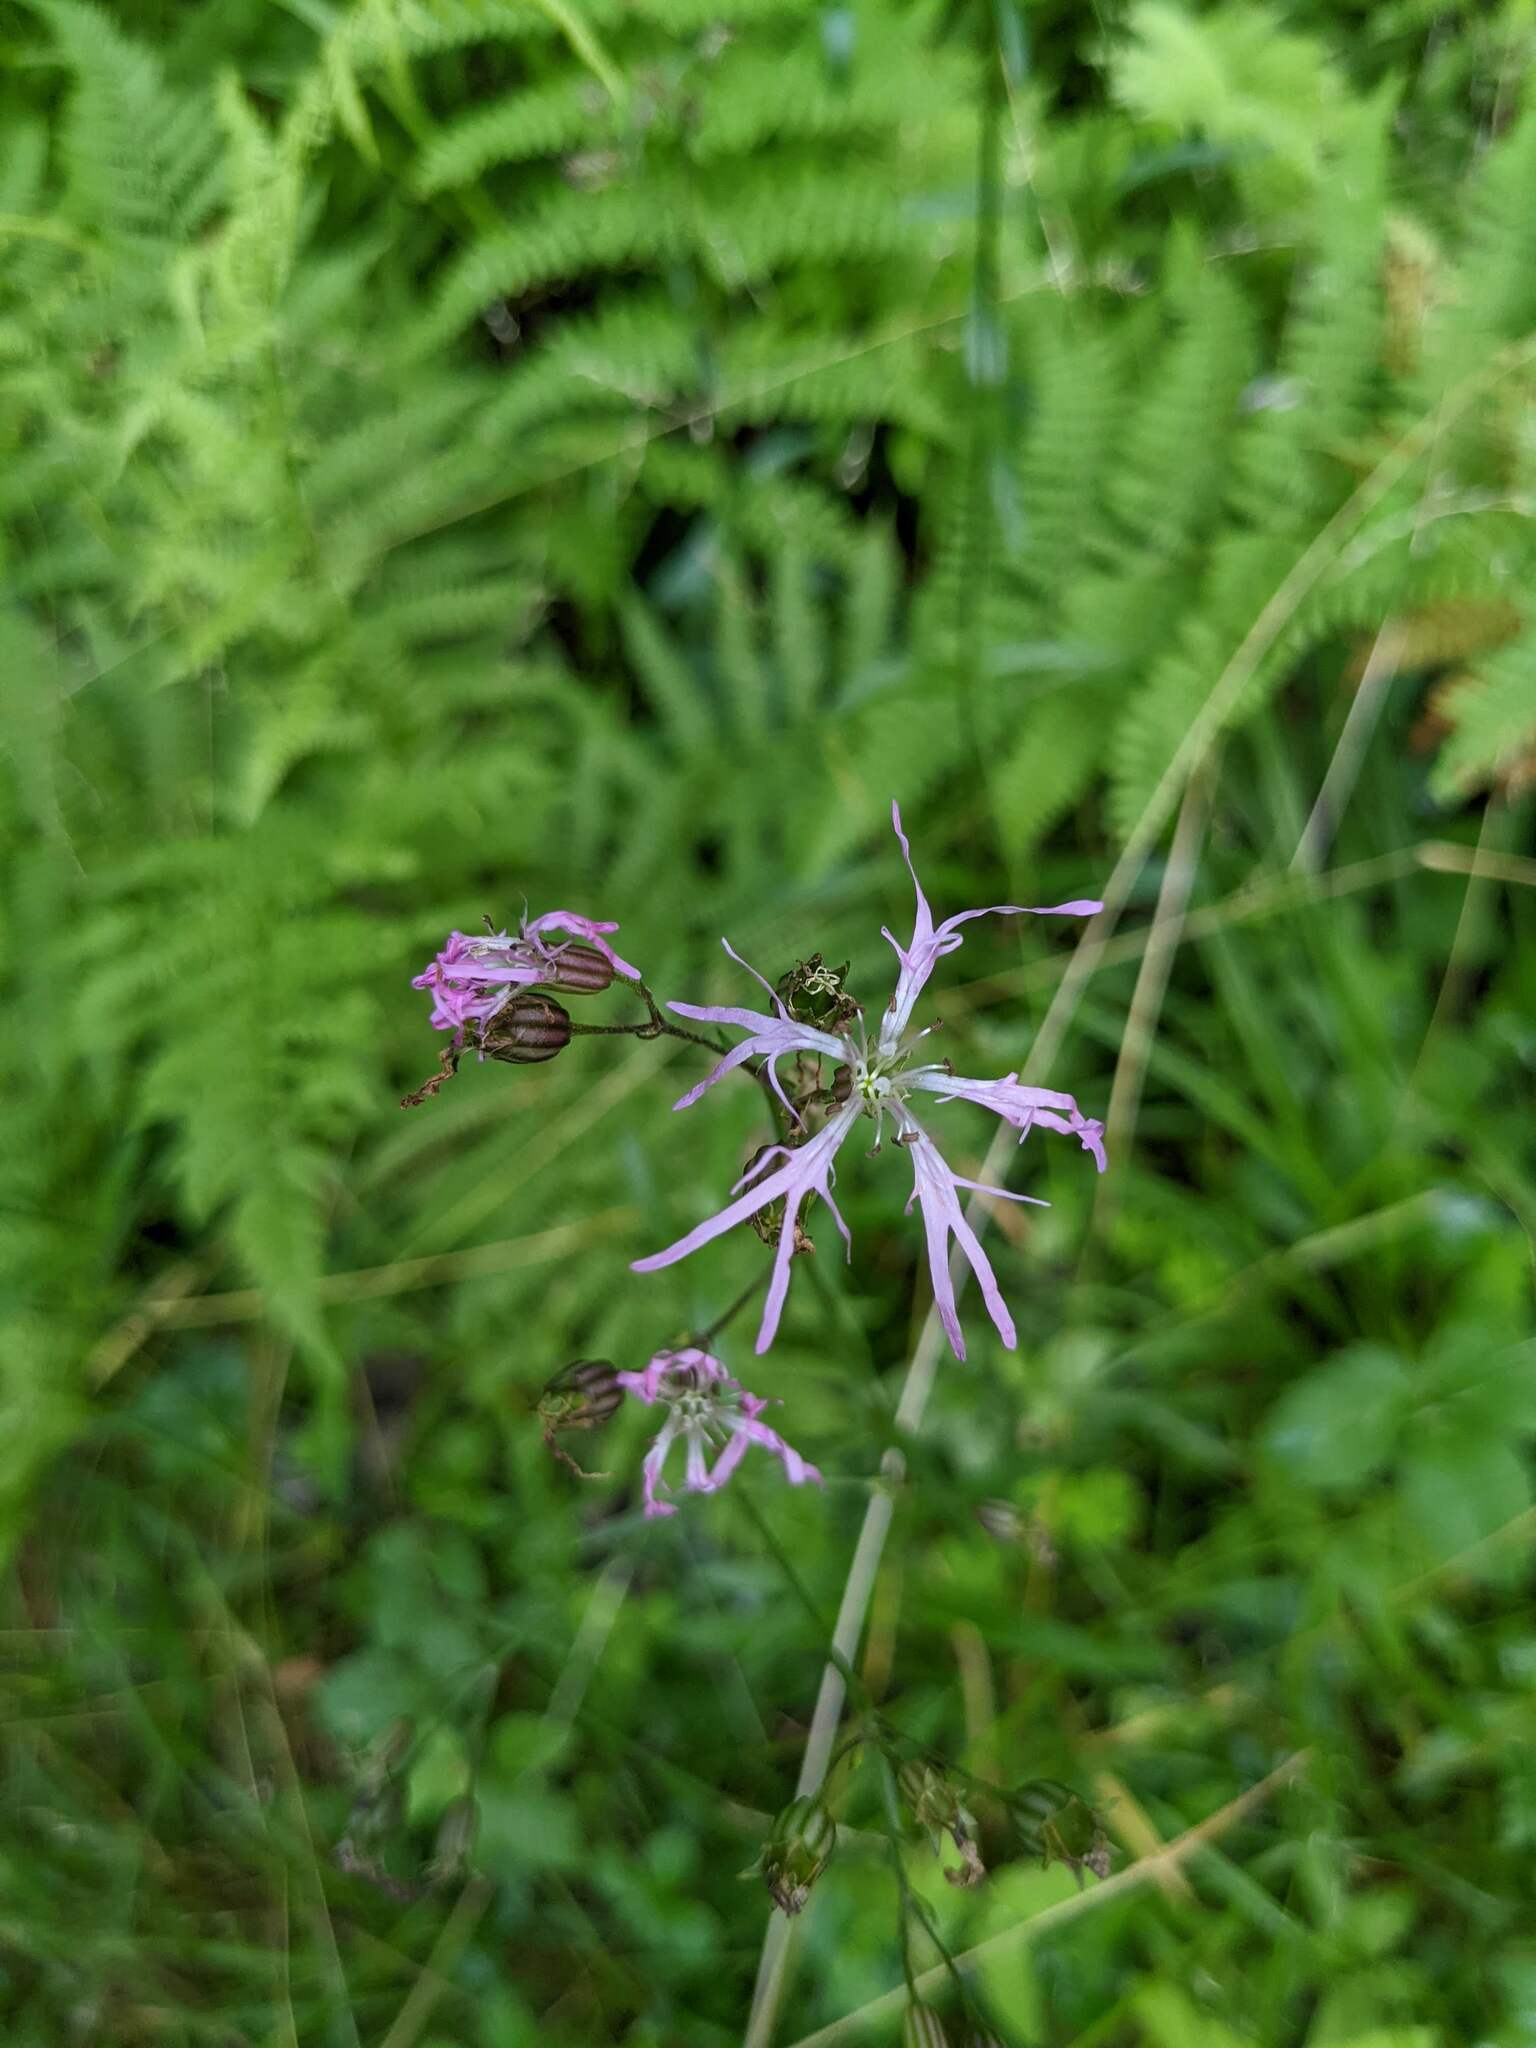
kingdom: Plantae
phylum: Tracheophyta
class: Magnoliopsida
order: Caryophyllales
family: Caryophyllaceae
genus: Silene
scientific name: Silene flos-cuculi
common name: Ragged-robin
